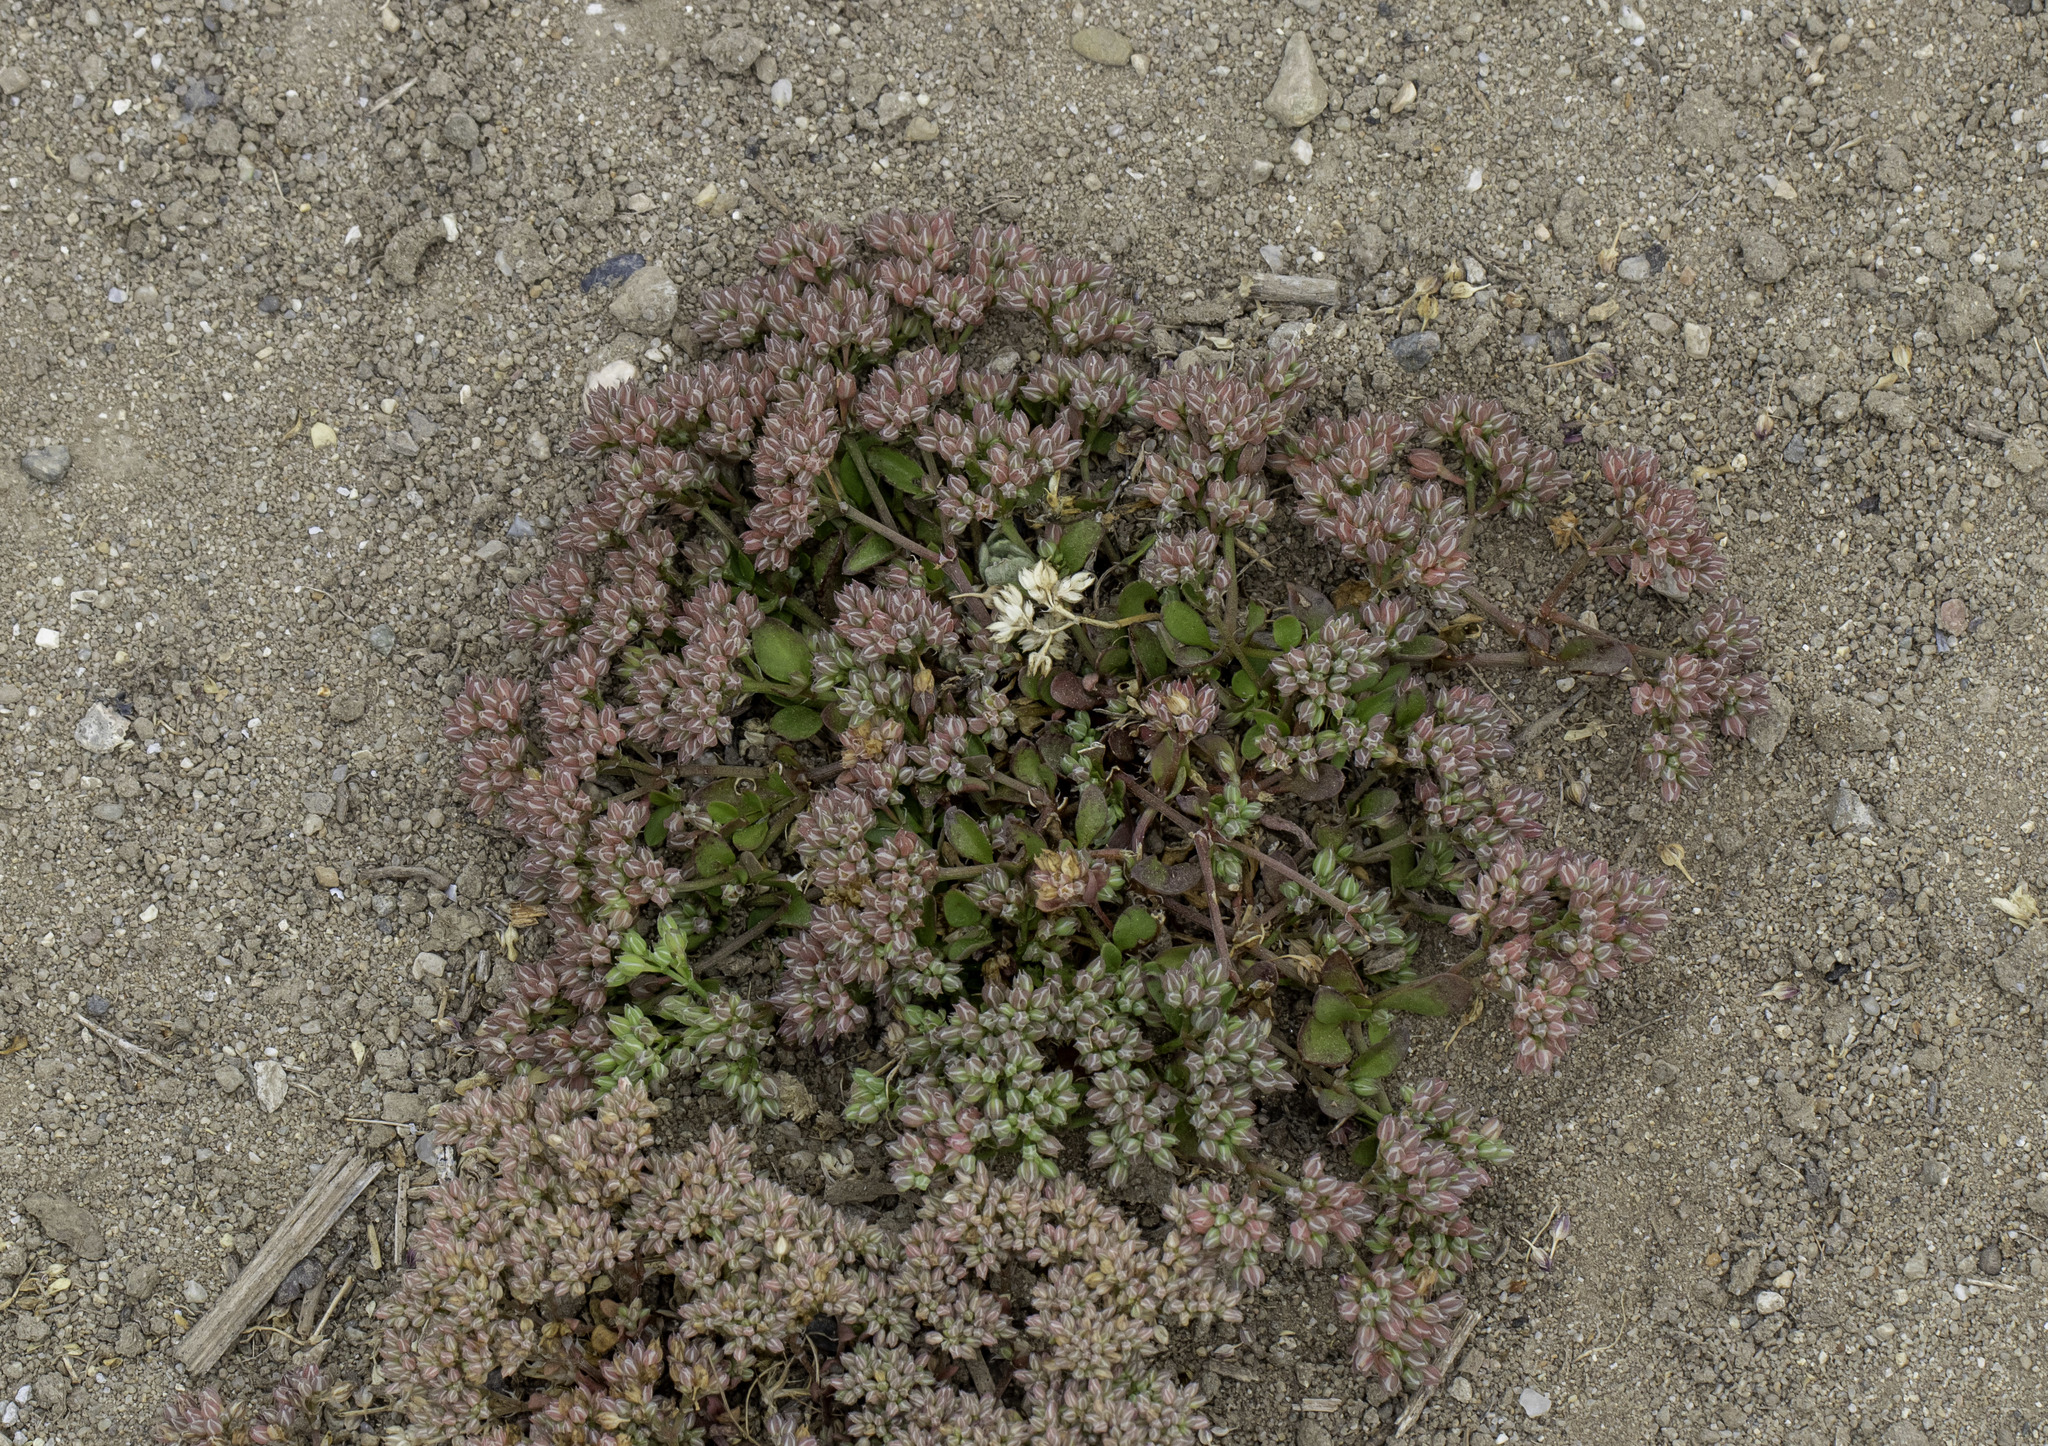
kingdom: Plantae
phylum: Tracheophyta
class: Magnoliopsida
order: Caryophyllales
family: Caryophyllaceae
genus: Polycarpon
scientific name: Polycarpon tetraphyllum
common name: Four-leaved all-seed
